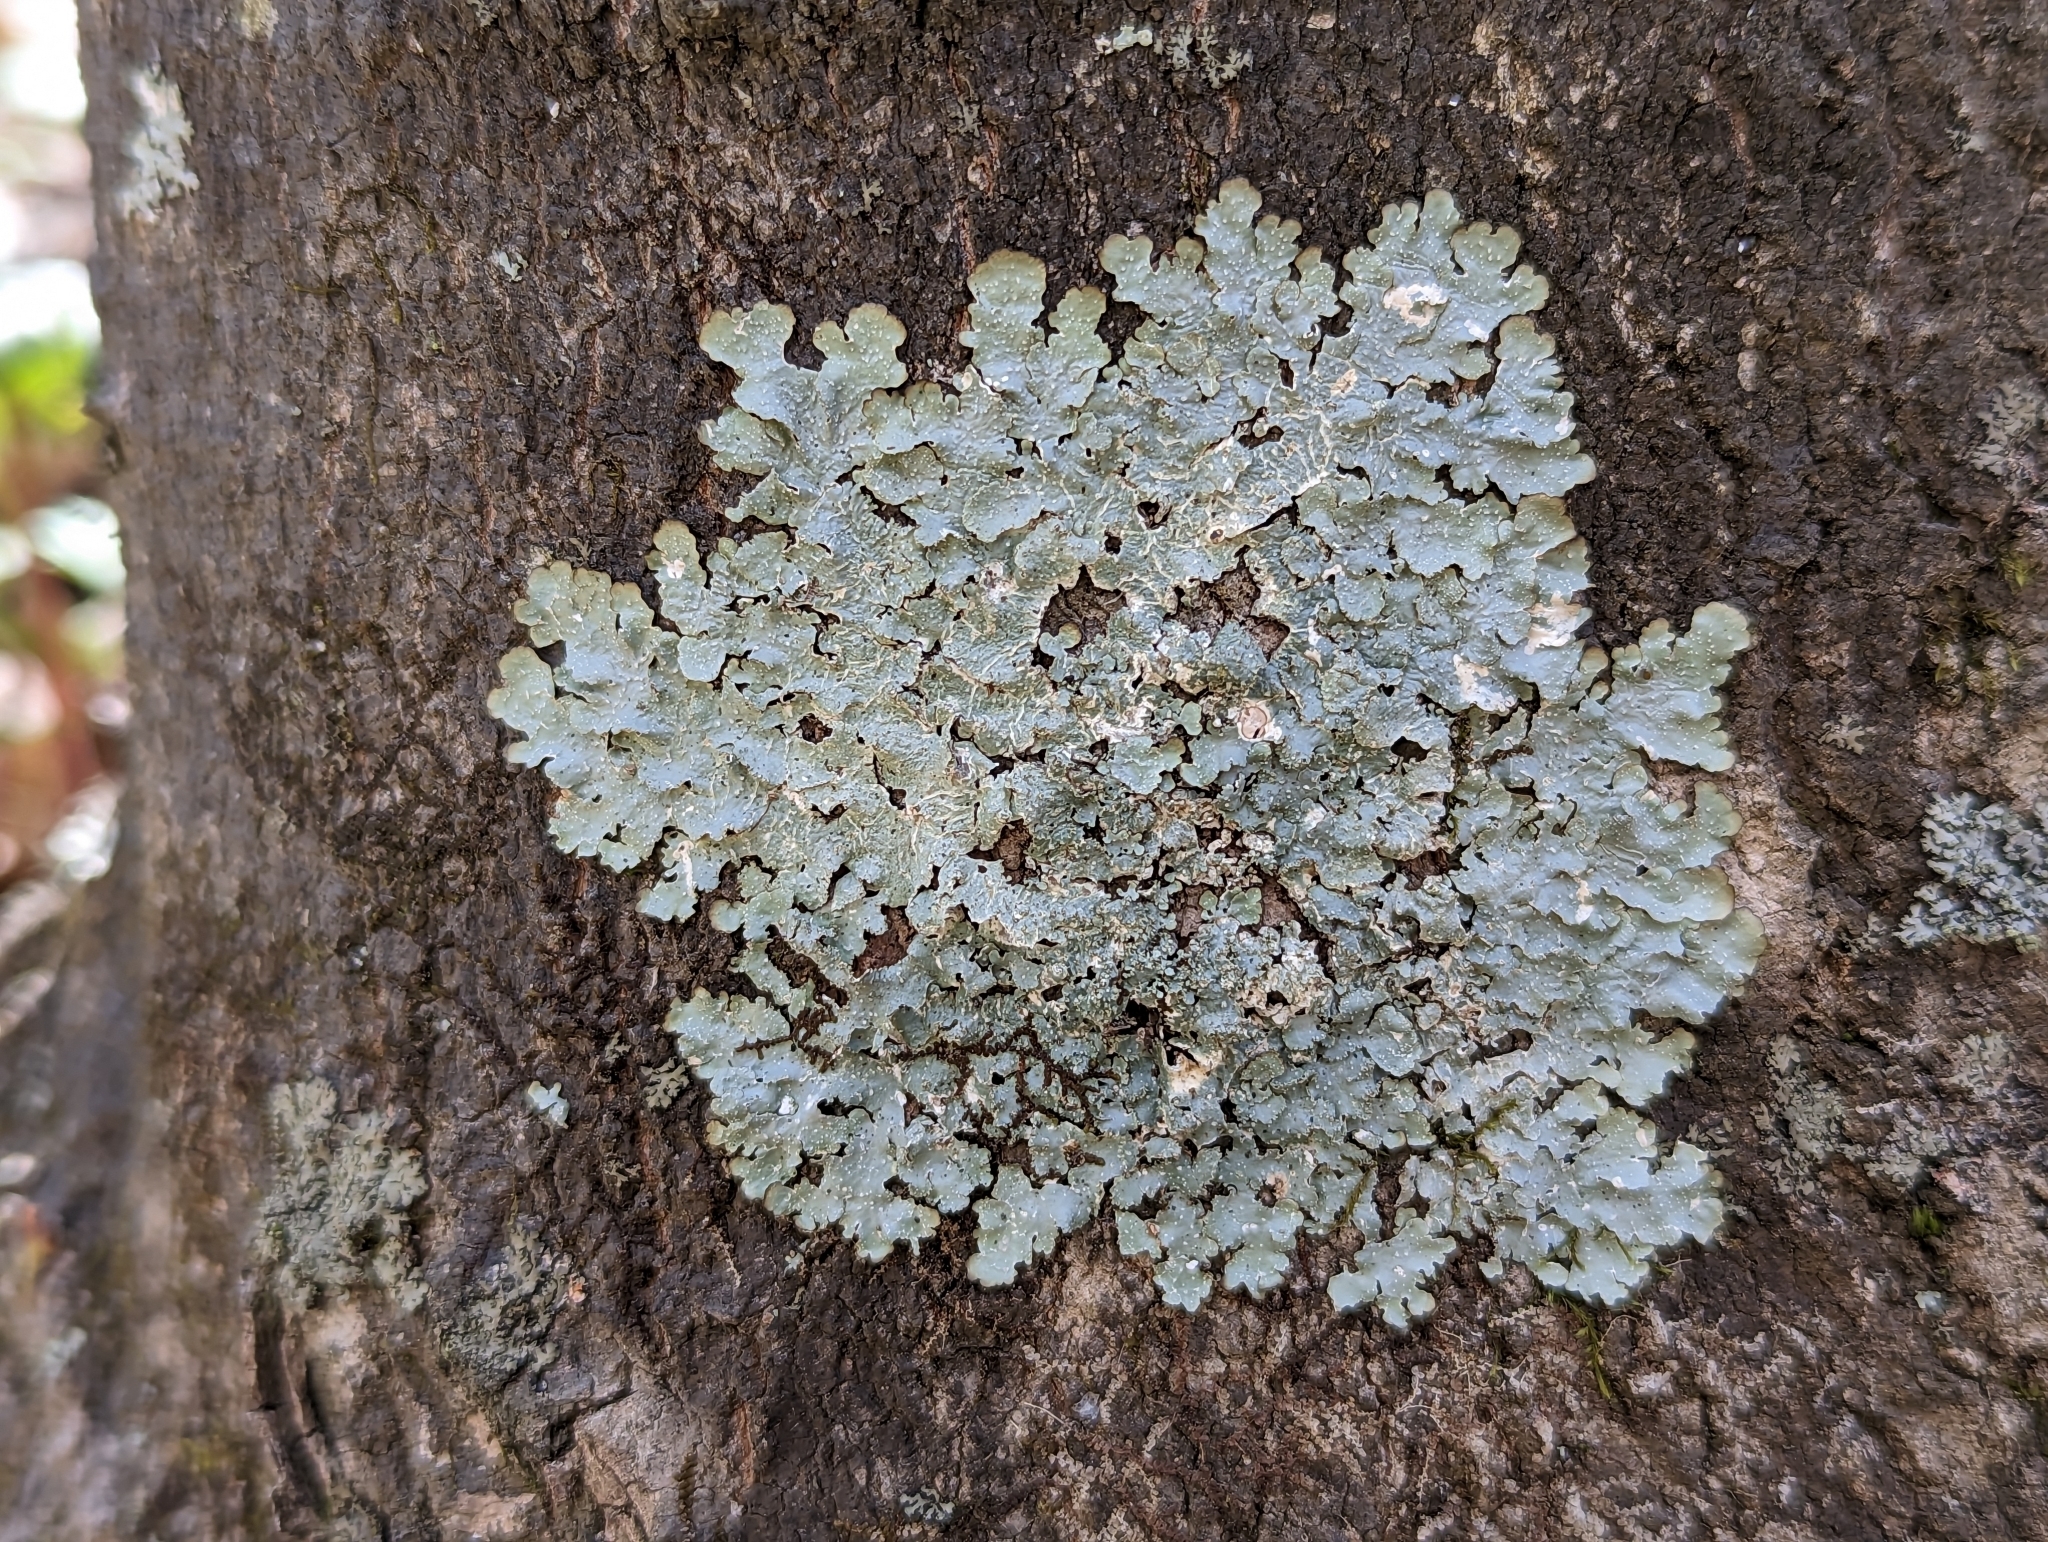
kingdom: Fungi
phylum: Ascomycota
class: Lecanoromycetes
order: Lecanorales
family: Parmeliaceae
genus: Punctelia
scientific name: Punctelia rudecta
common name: Rough speckled shield lichen
